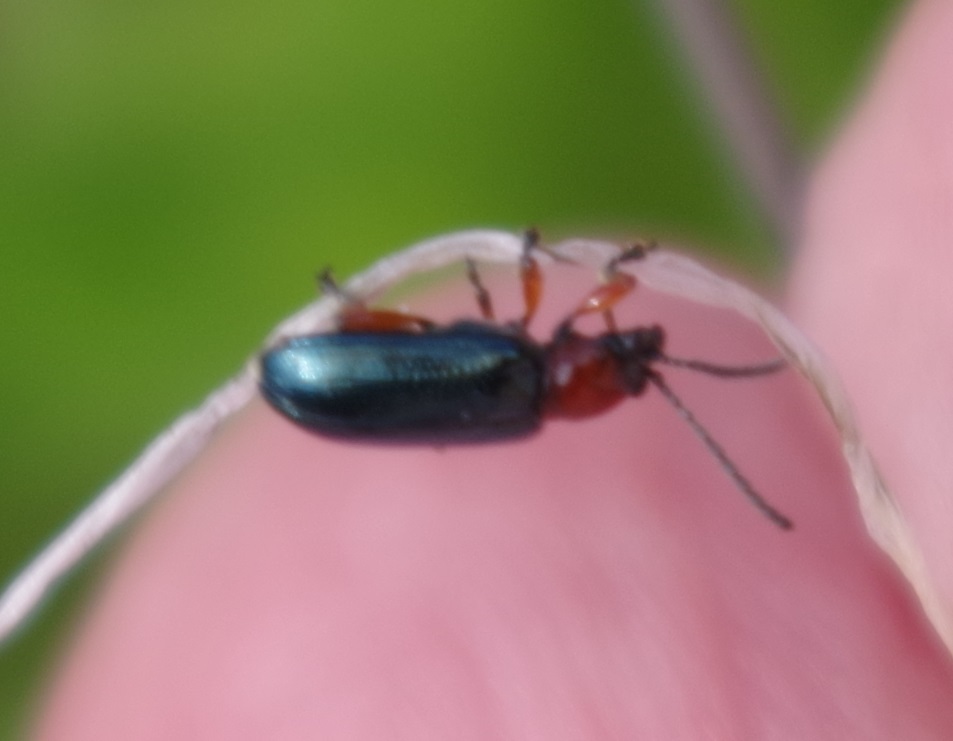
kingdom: Animalia
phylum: Arthropoda
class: Insecta
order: Coleoptera
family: Chrysomelidae
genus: Oulema
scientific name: Oulema
